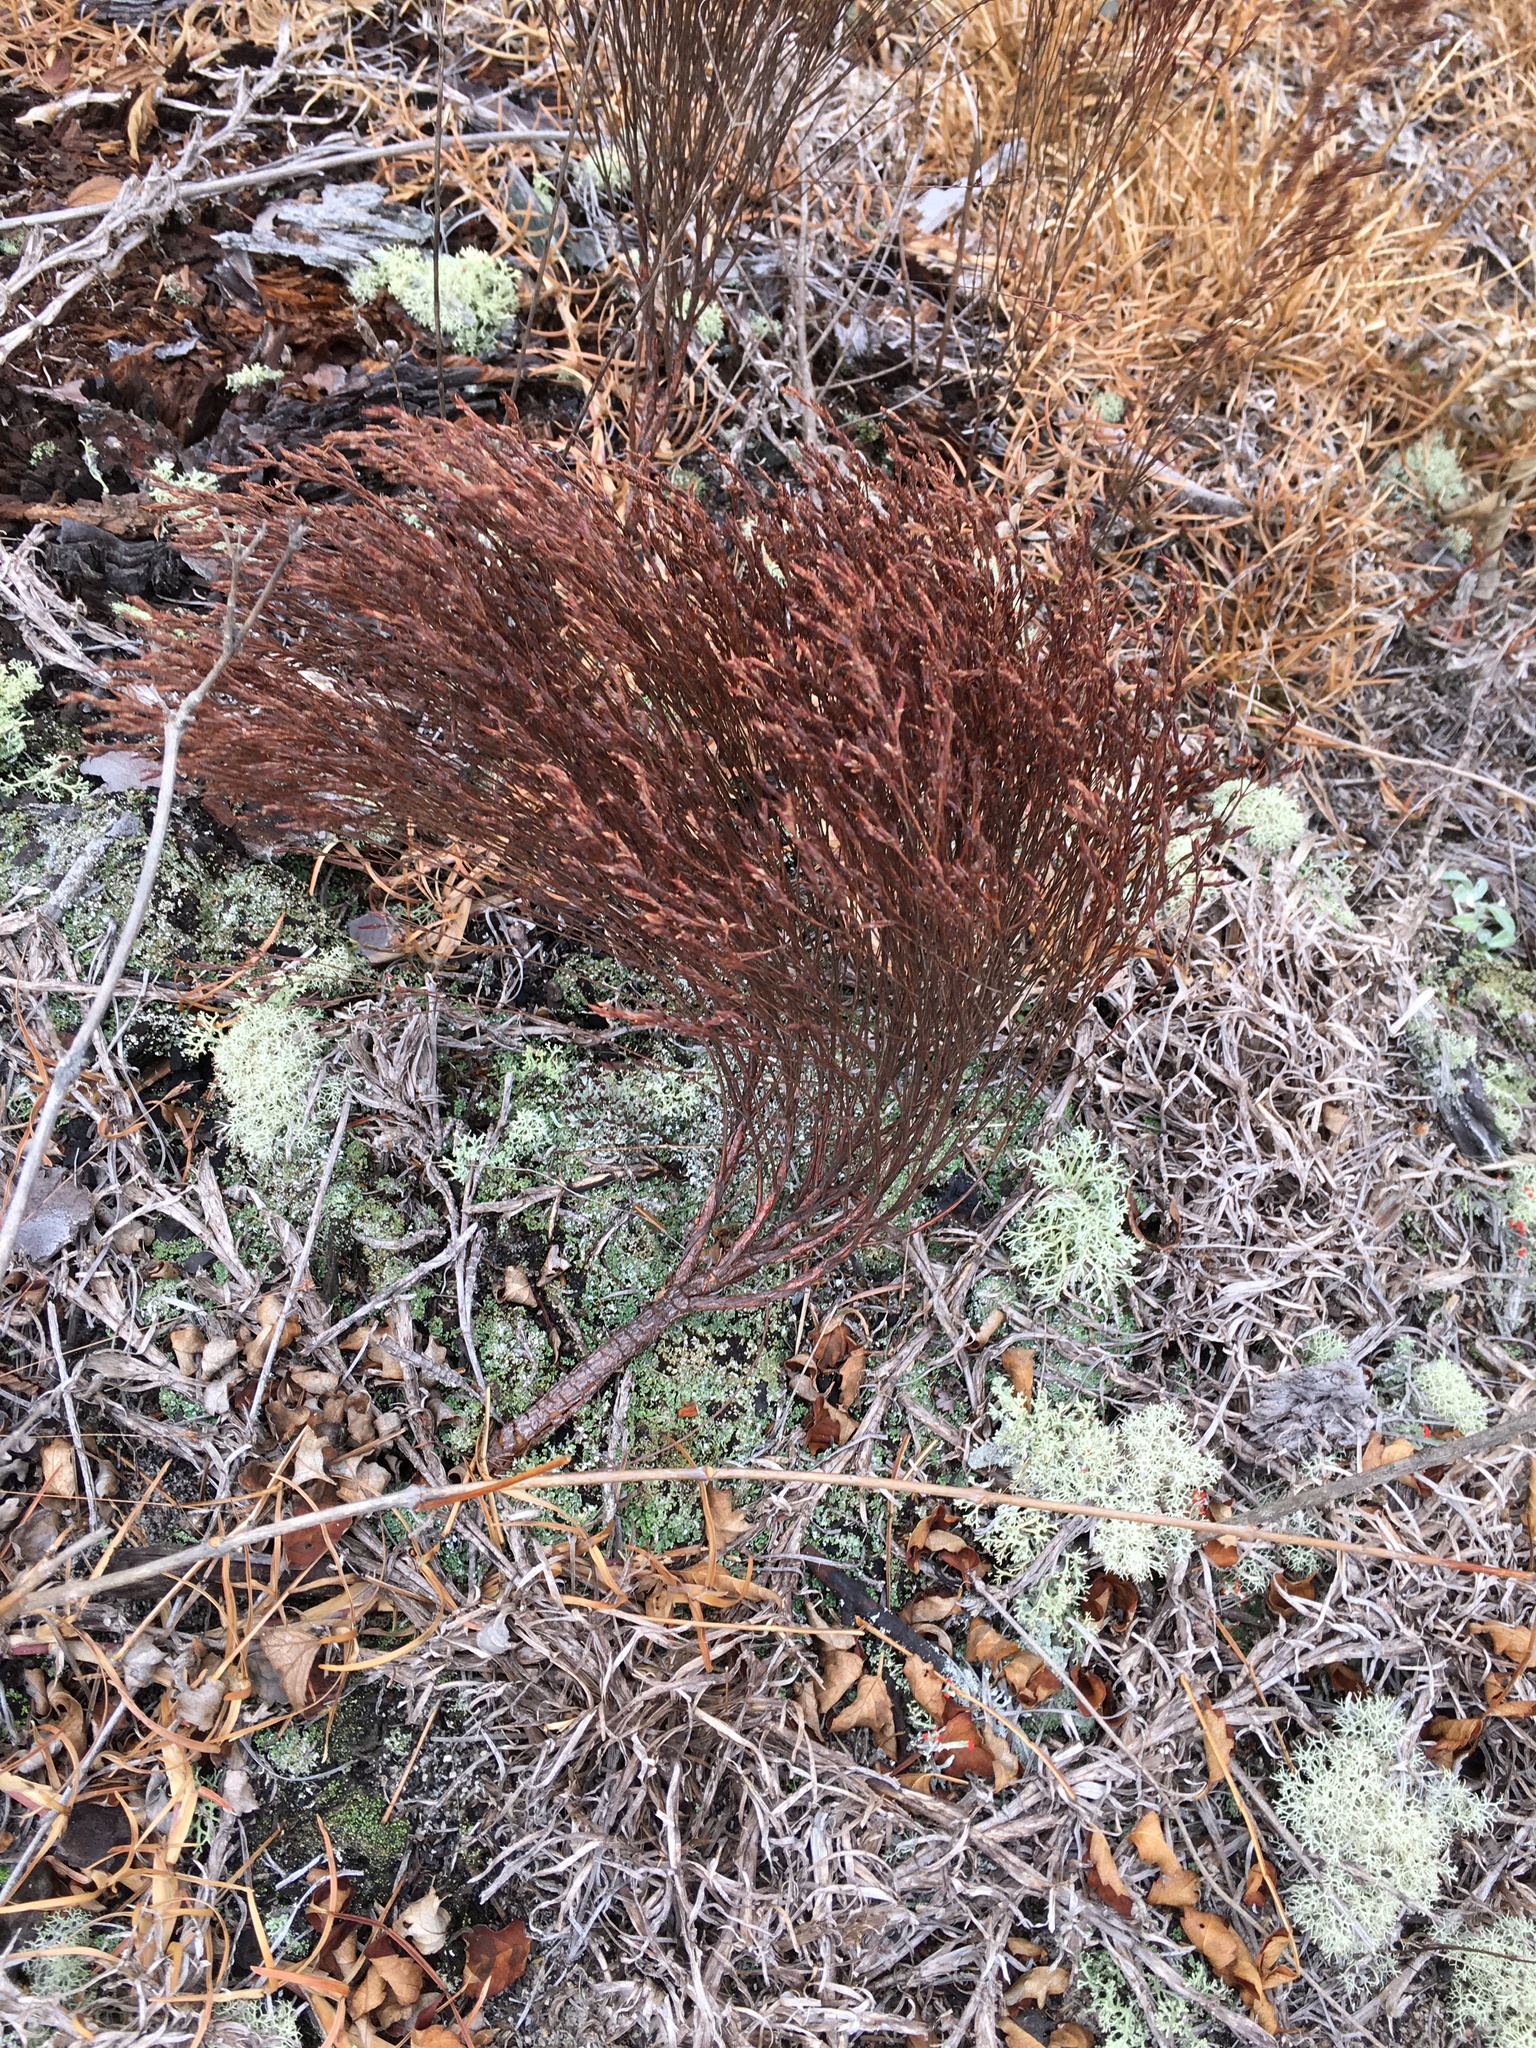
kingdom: Plantae
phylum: Tracheophyta
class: Magnoliopsida
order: Malpighiales
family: Hypericaceae
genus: Hypericum
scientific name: Hypericum gentianoides
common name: Gentian-leaved st. john's-wort
